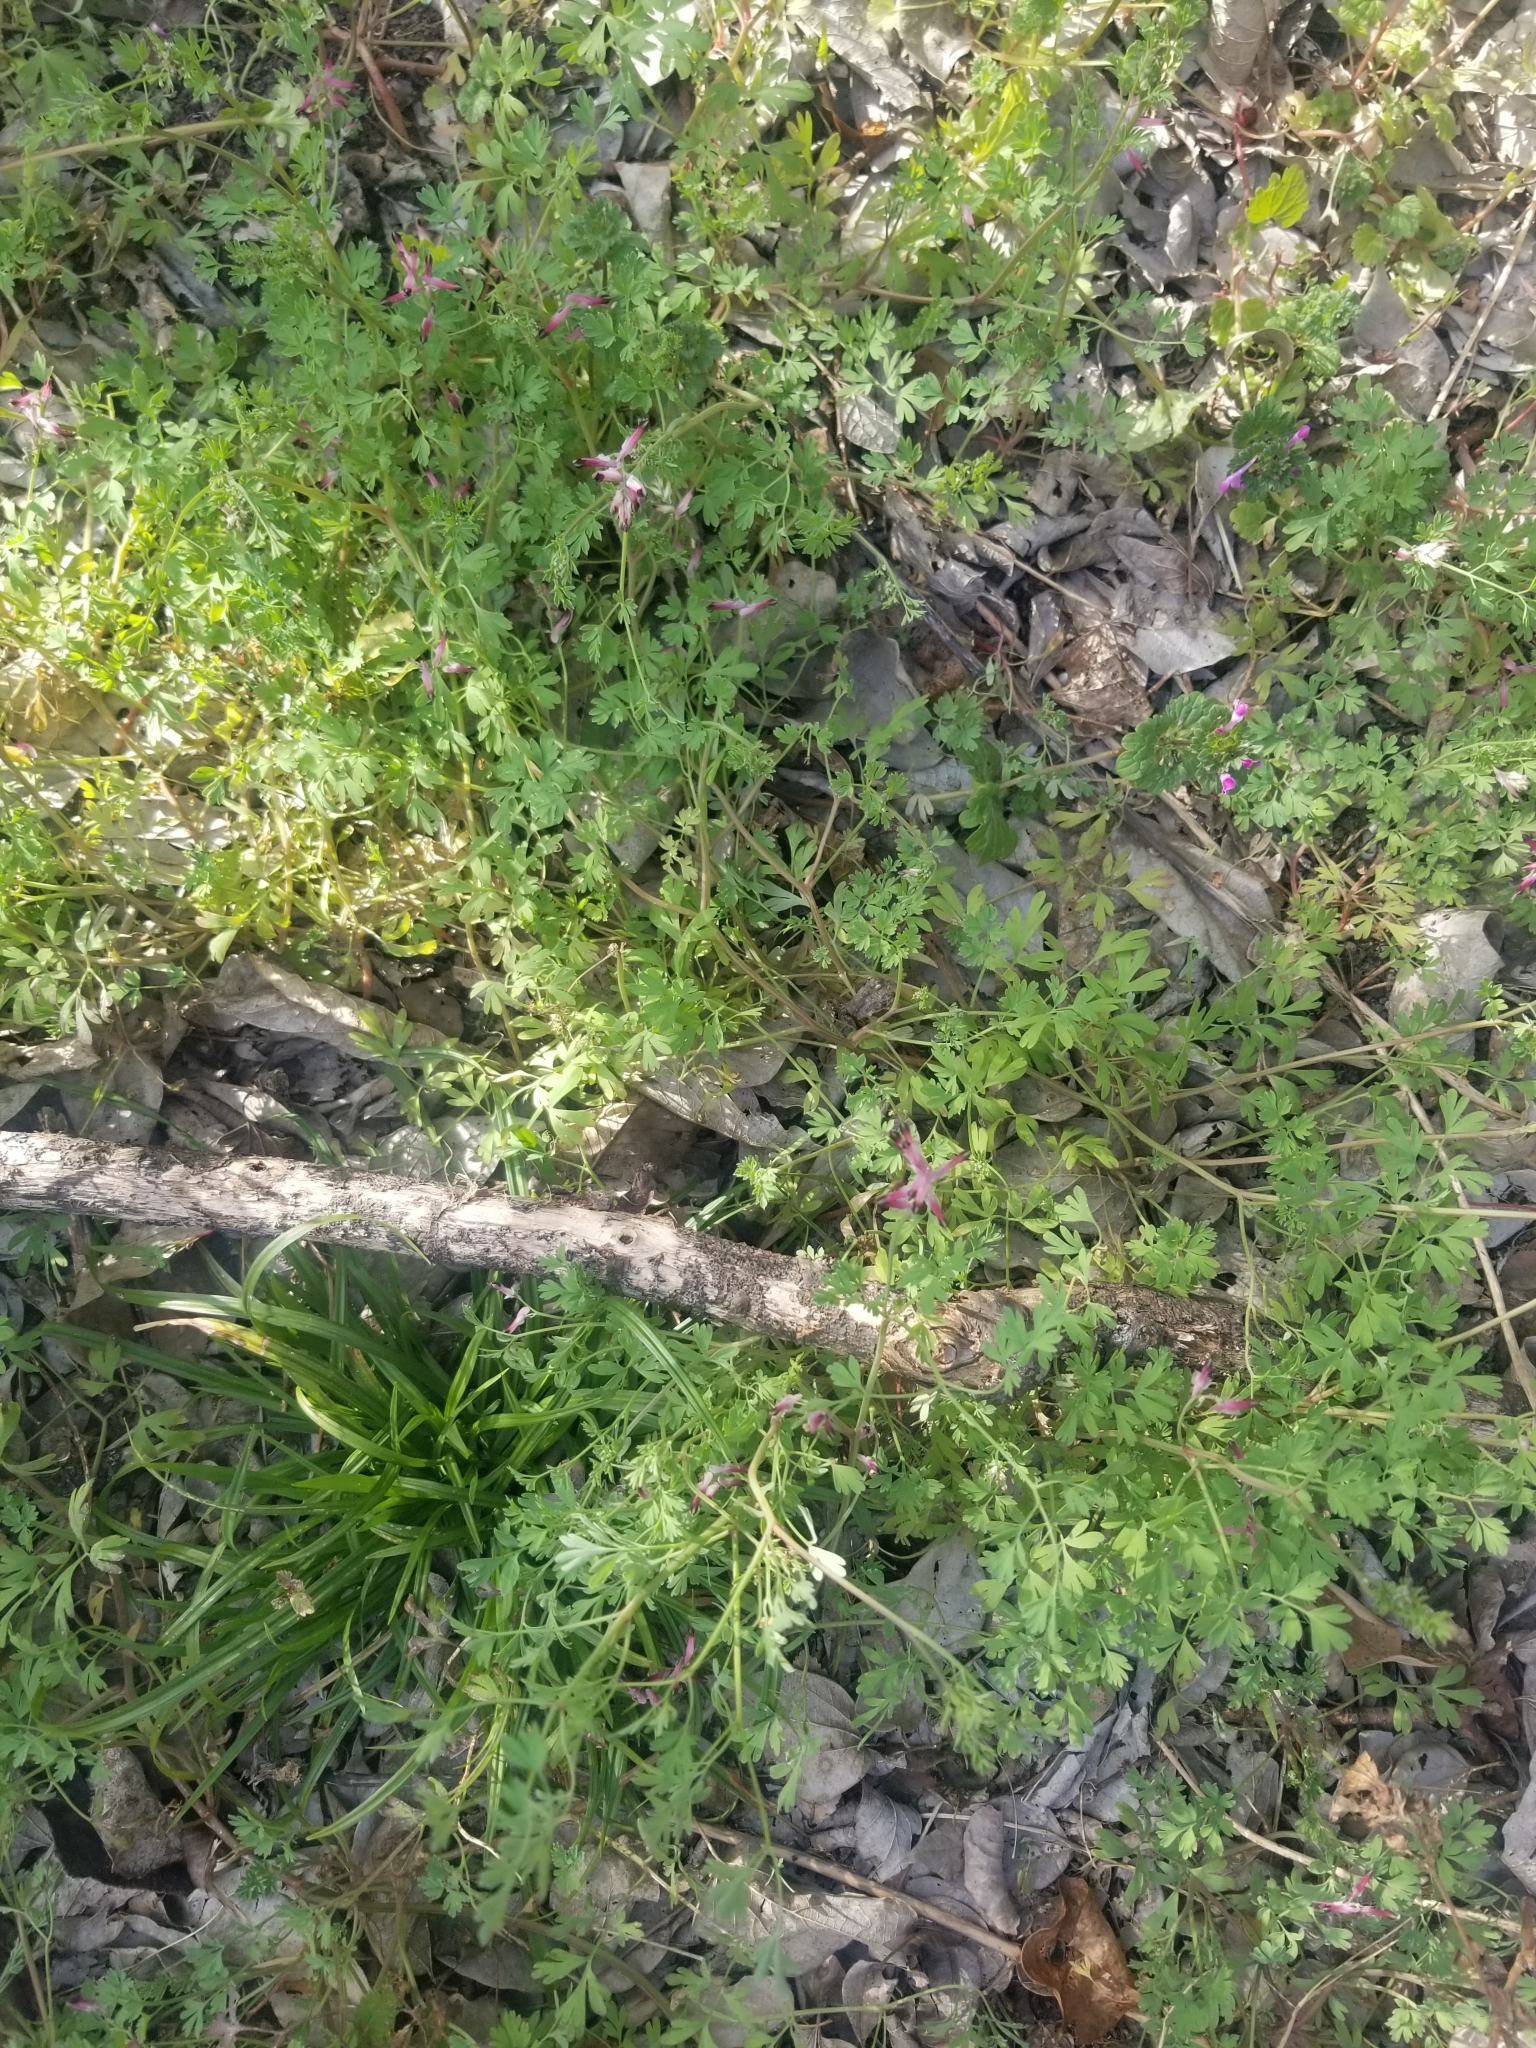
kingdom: Plantae
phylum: Tracheophyta
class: Magnoliopsida
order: Ranunculales
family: Papaveraceae
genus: Fumaria
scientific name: Fumaria muralis
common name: Common ramping-fumitory
